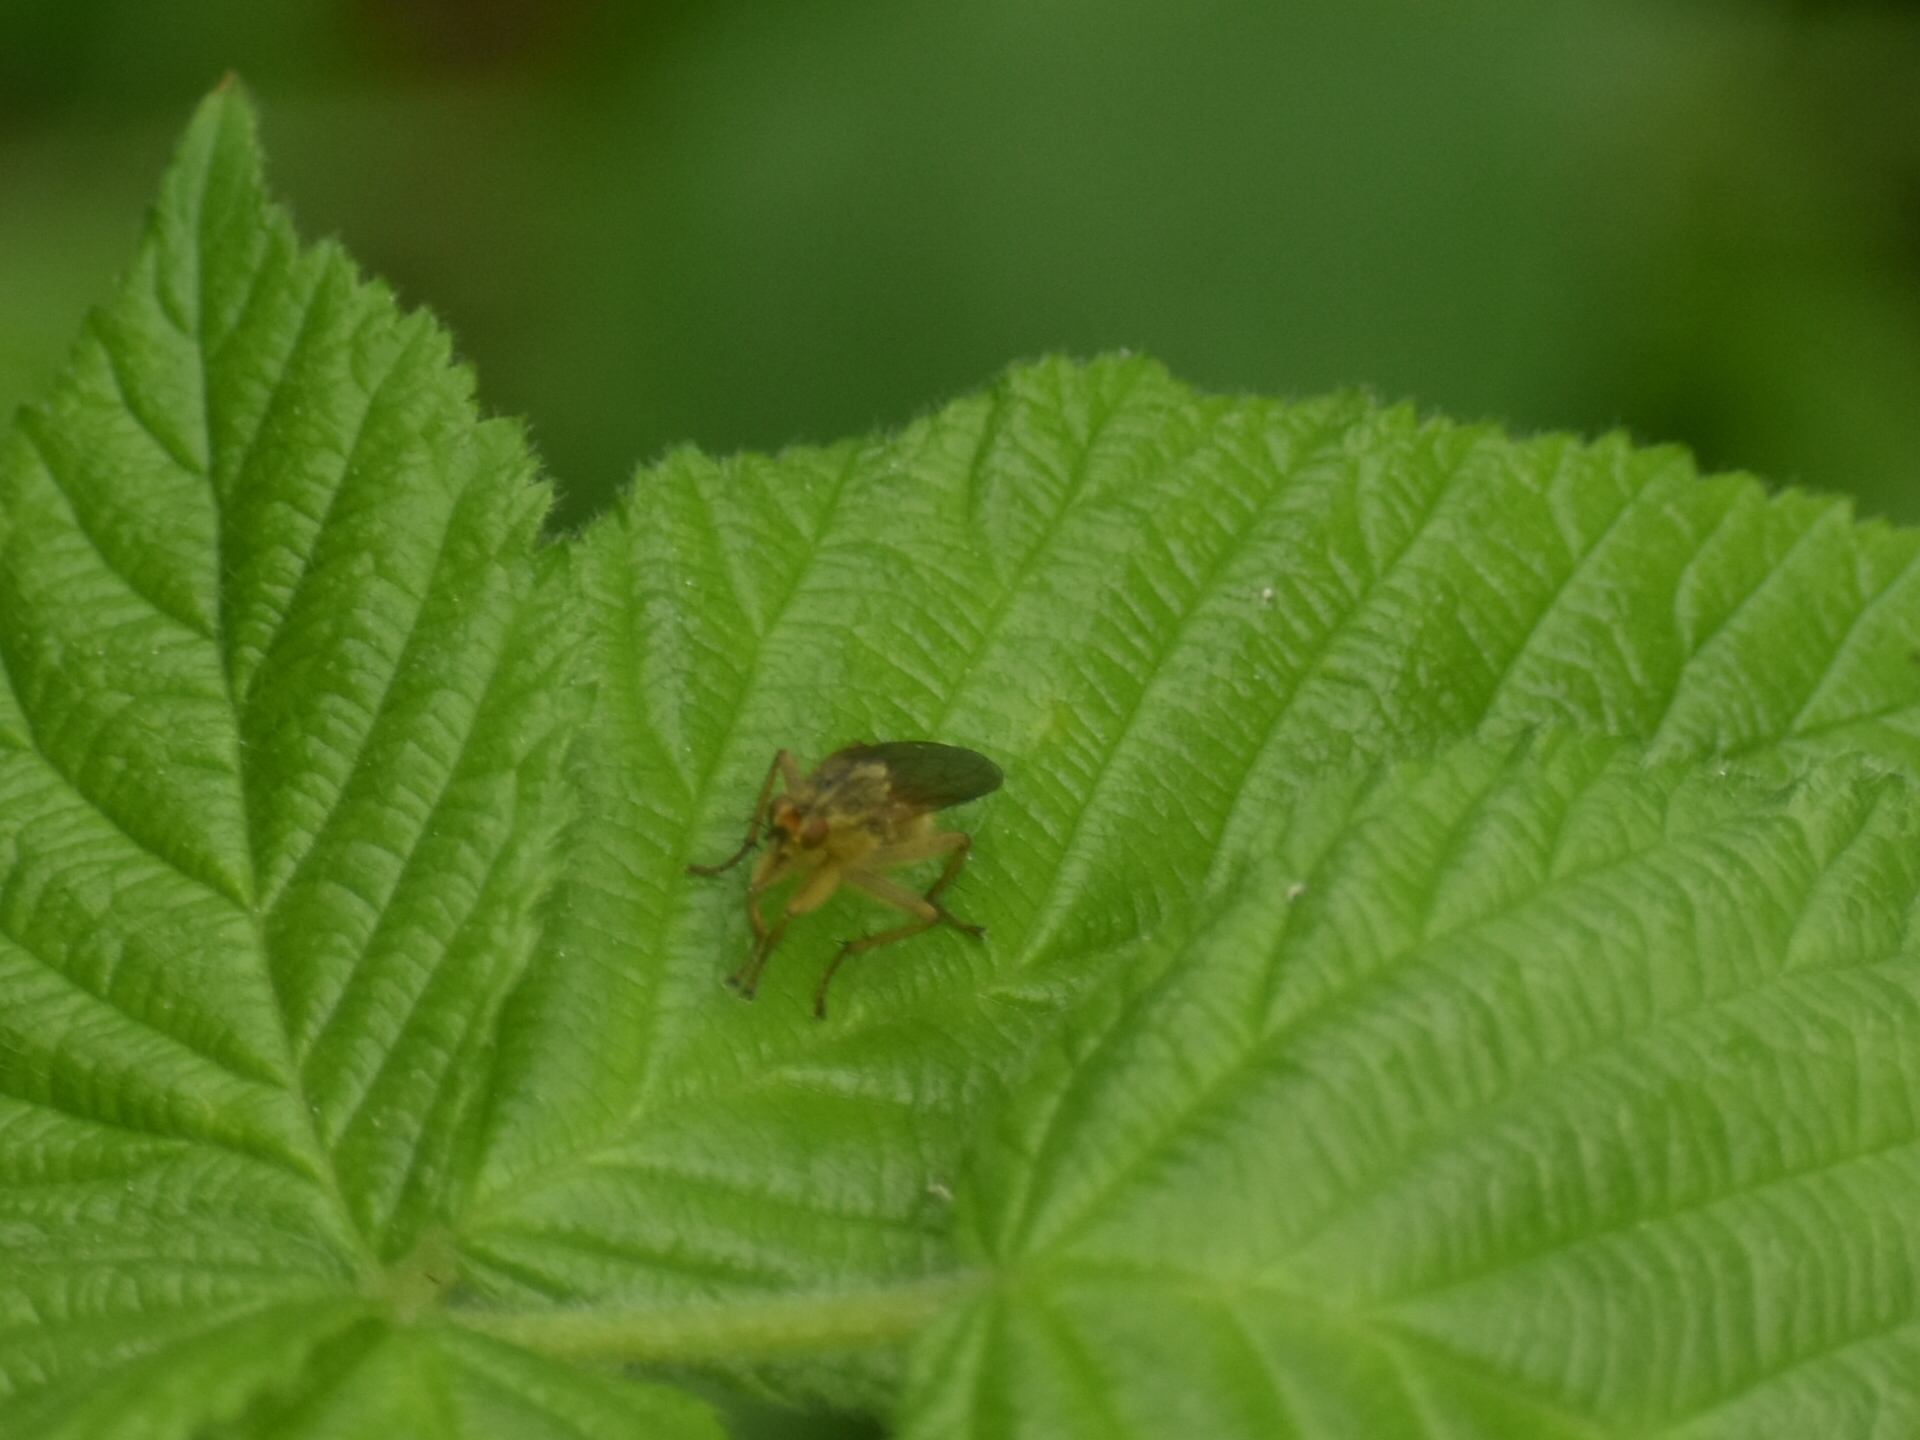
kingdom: Animalia
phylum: Arthropoda
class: Insecta
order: Diptera
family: Scathophagidae
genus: Scathophaga
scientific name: Scathophaga stercoraria
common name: Yellow dung fly
